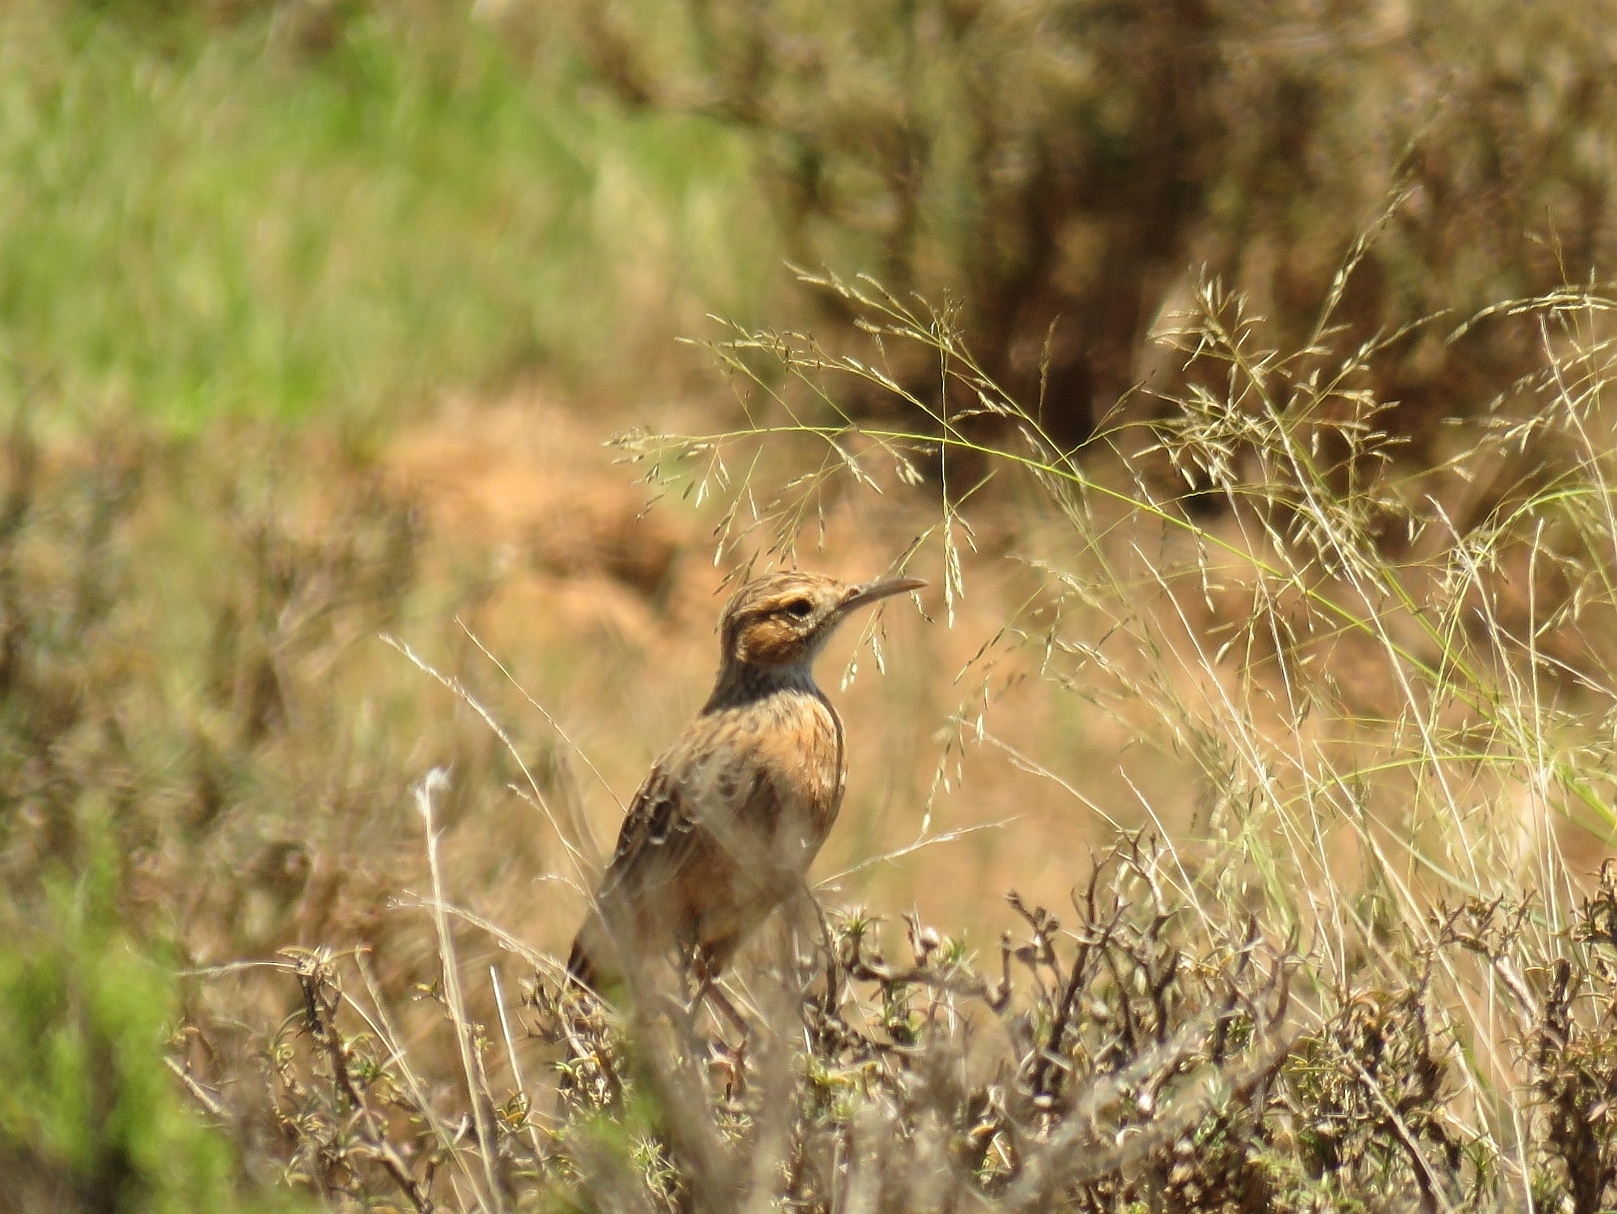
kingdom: Animalia
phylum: Chordata
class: Aves
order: Passeriformes
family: Alaudidae
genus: Chersomanes
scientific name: Chersomanes albofasciata
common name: Spike-heeled lark
